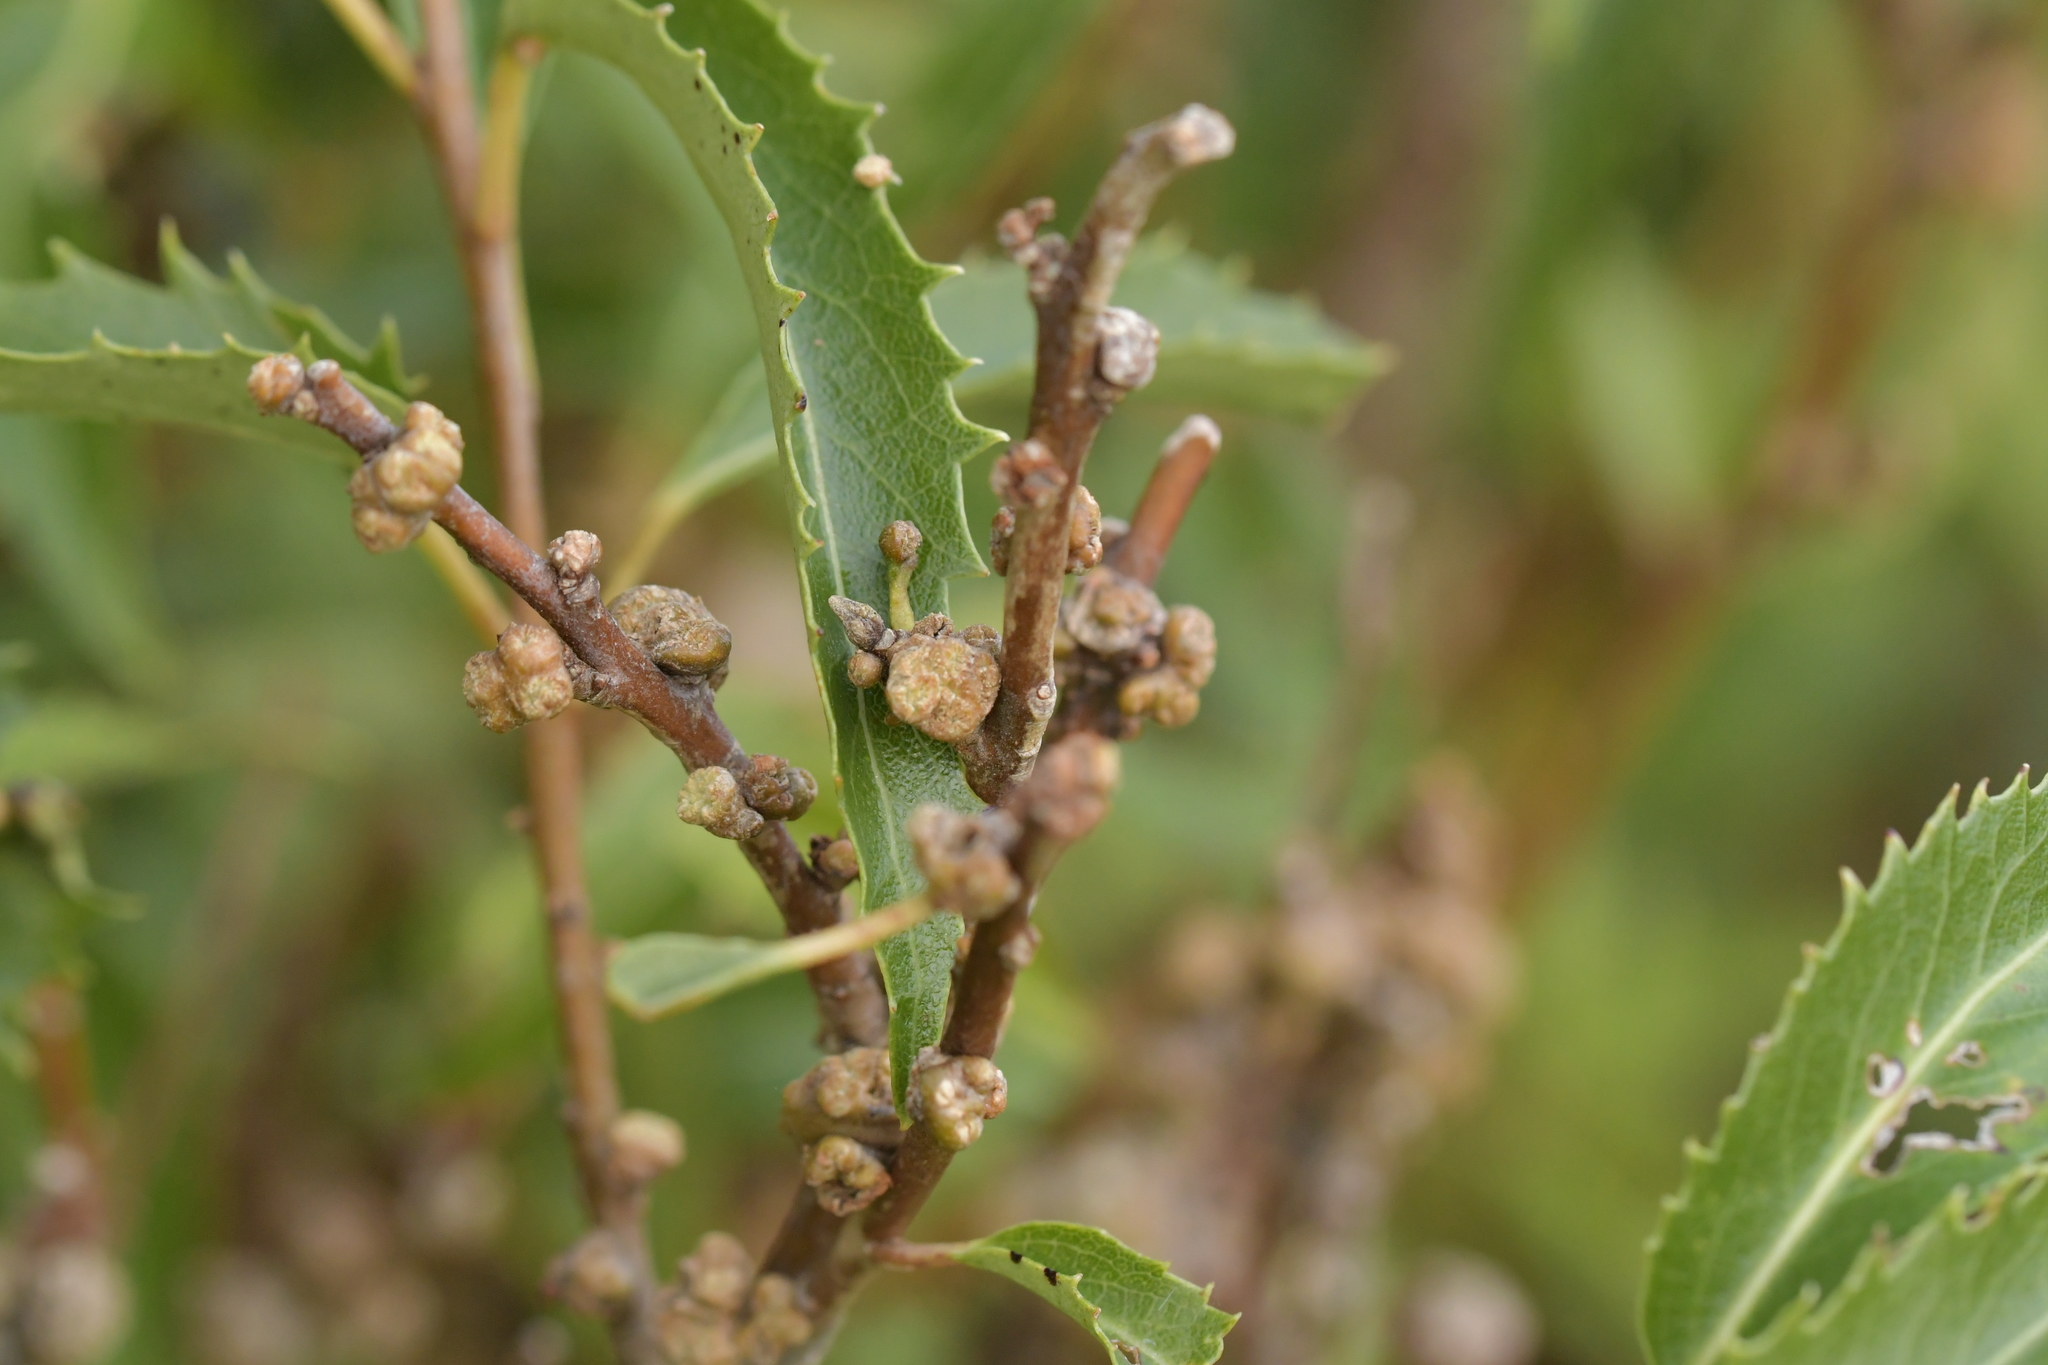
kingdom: Plantae
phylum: Tracheophyta
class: Magnoliopsida
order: Malvales
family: Malvaceae
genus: Hoheria
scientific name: Hoheria angustifolia
